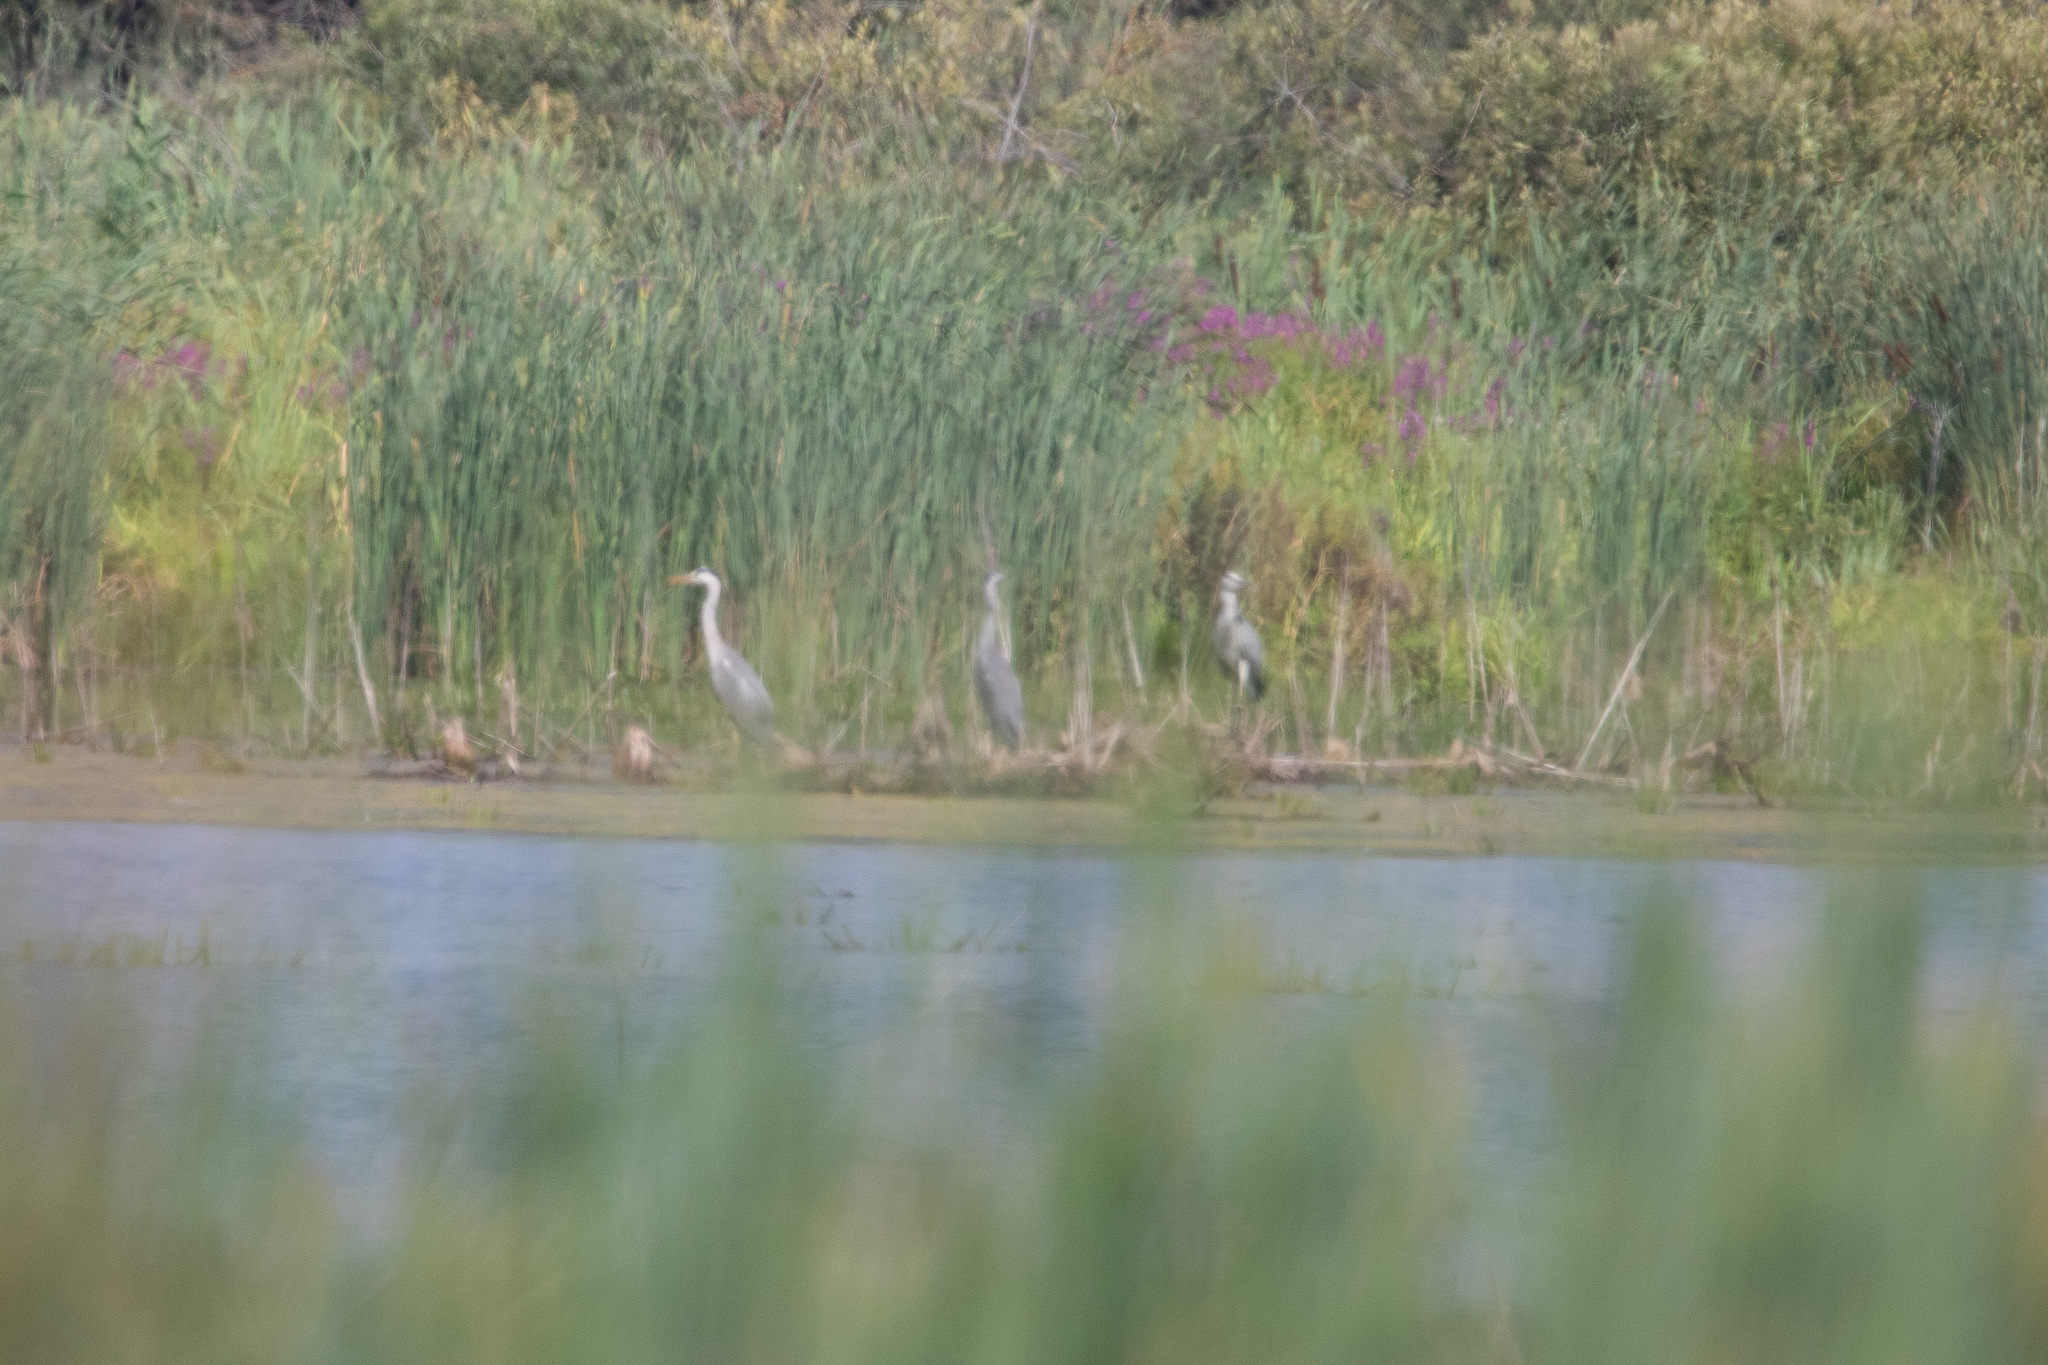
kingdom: Animalia
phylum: Chordata
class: Aves
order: Pelecaniformes
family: Ardeidae
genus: Ardea
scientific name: Ardea cinerea
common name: Grey heron
